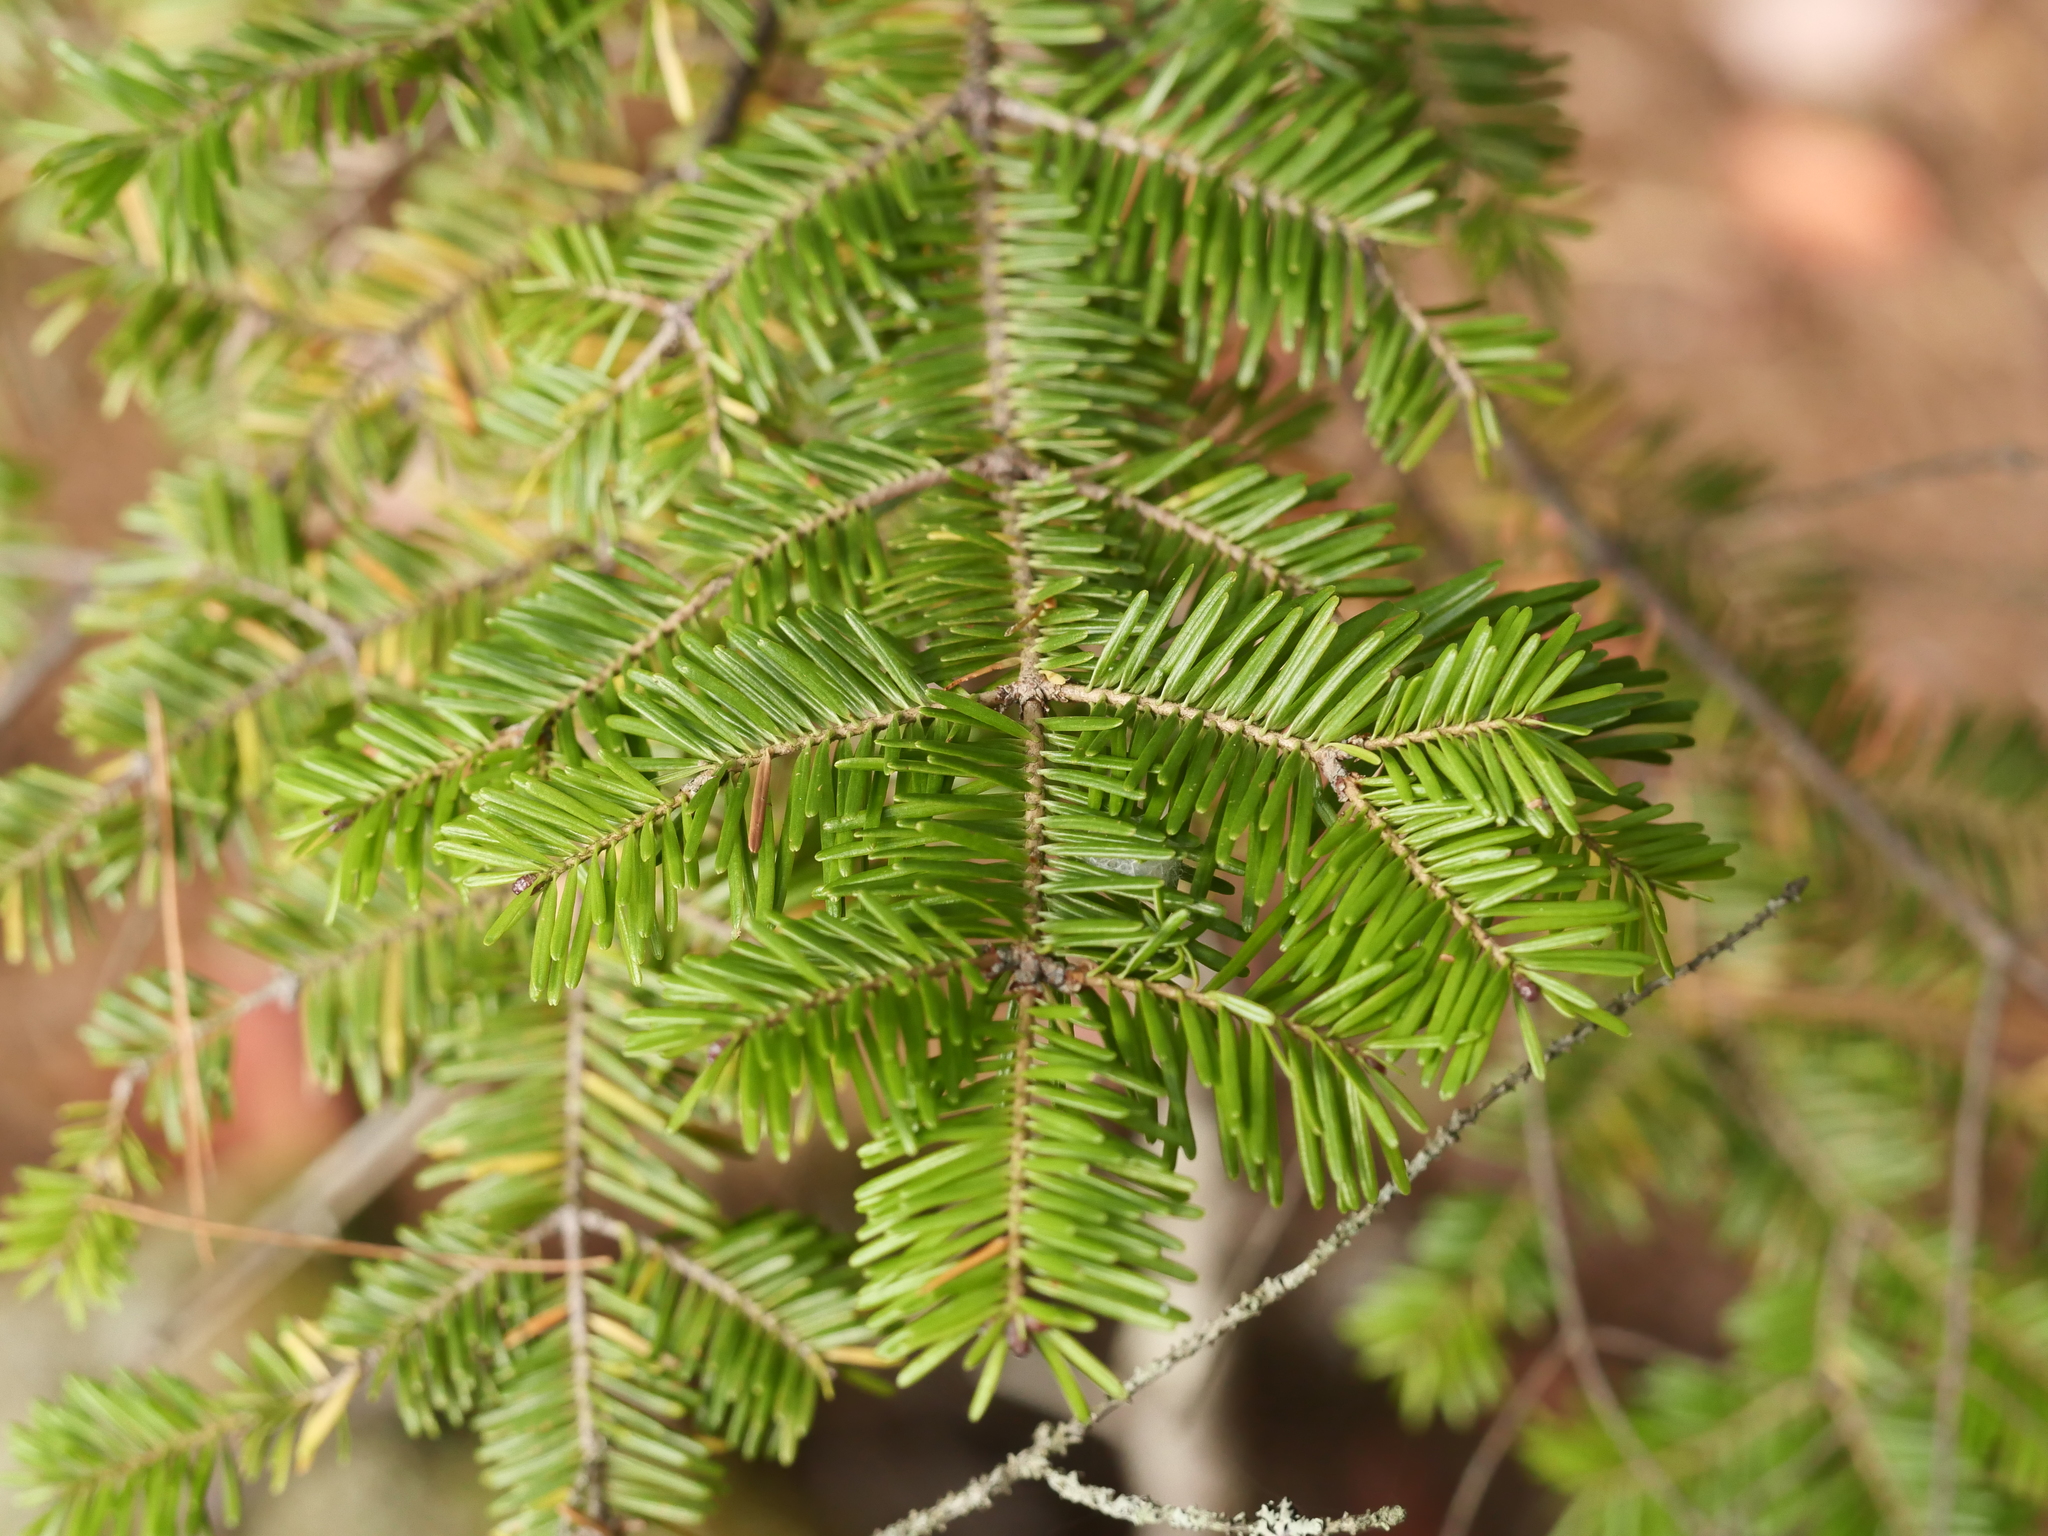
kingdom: Plantae
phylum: Tracheophyta
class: Pinopsida
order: Pinales
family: Pinaceae
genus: Abies
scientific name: Abies balsamea
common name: Balsam fir
